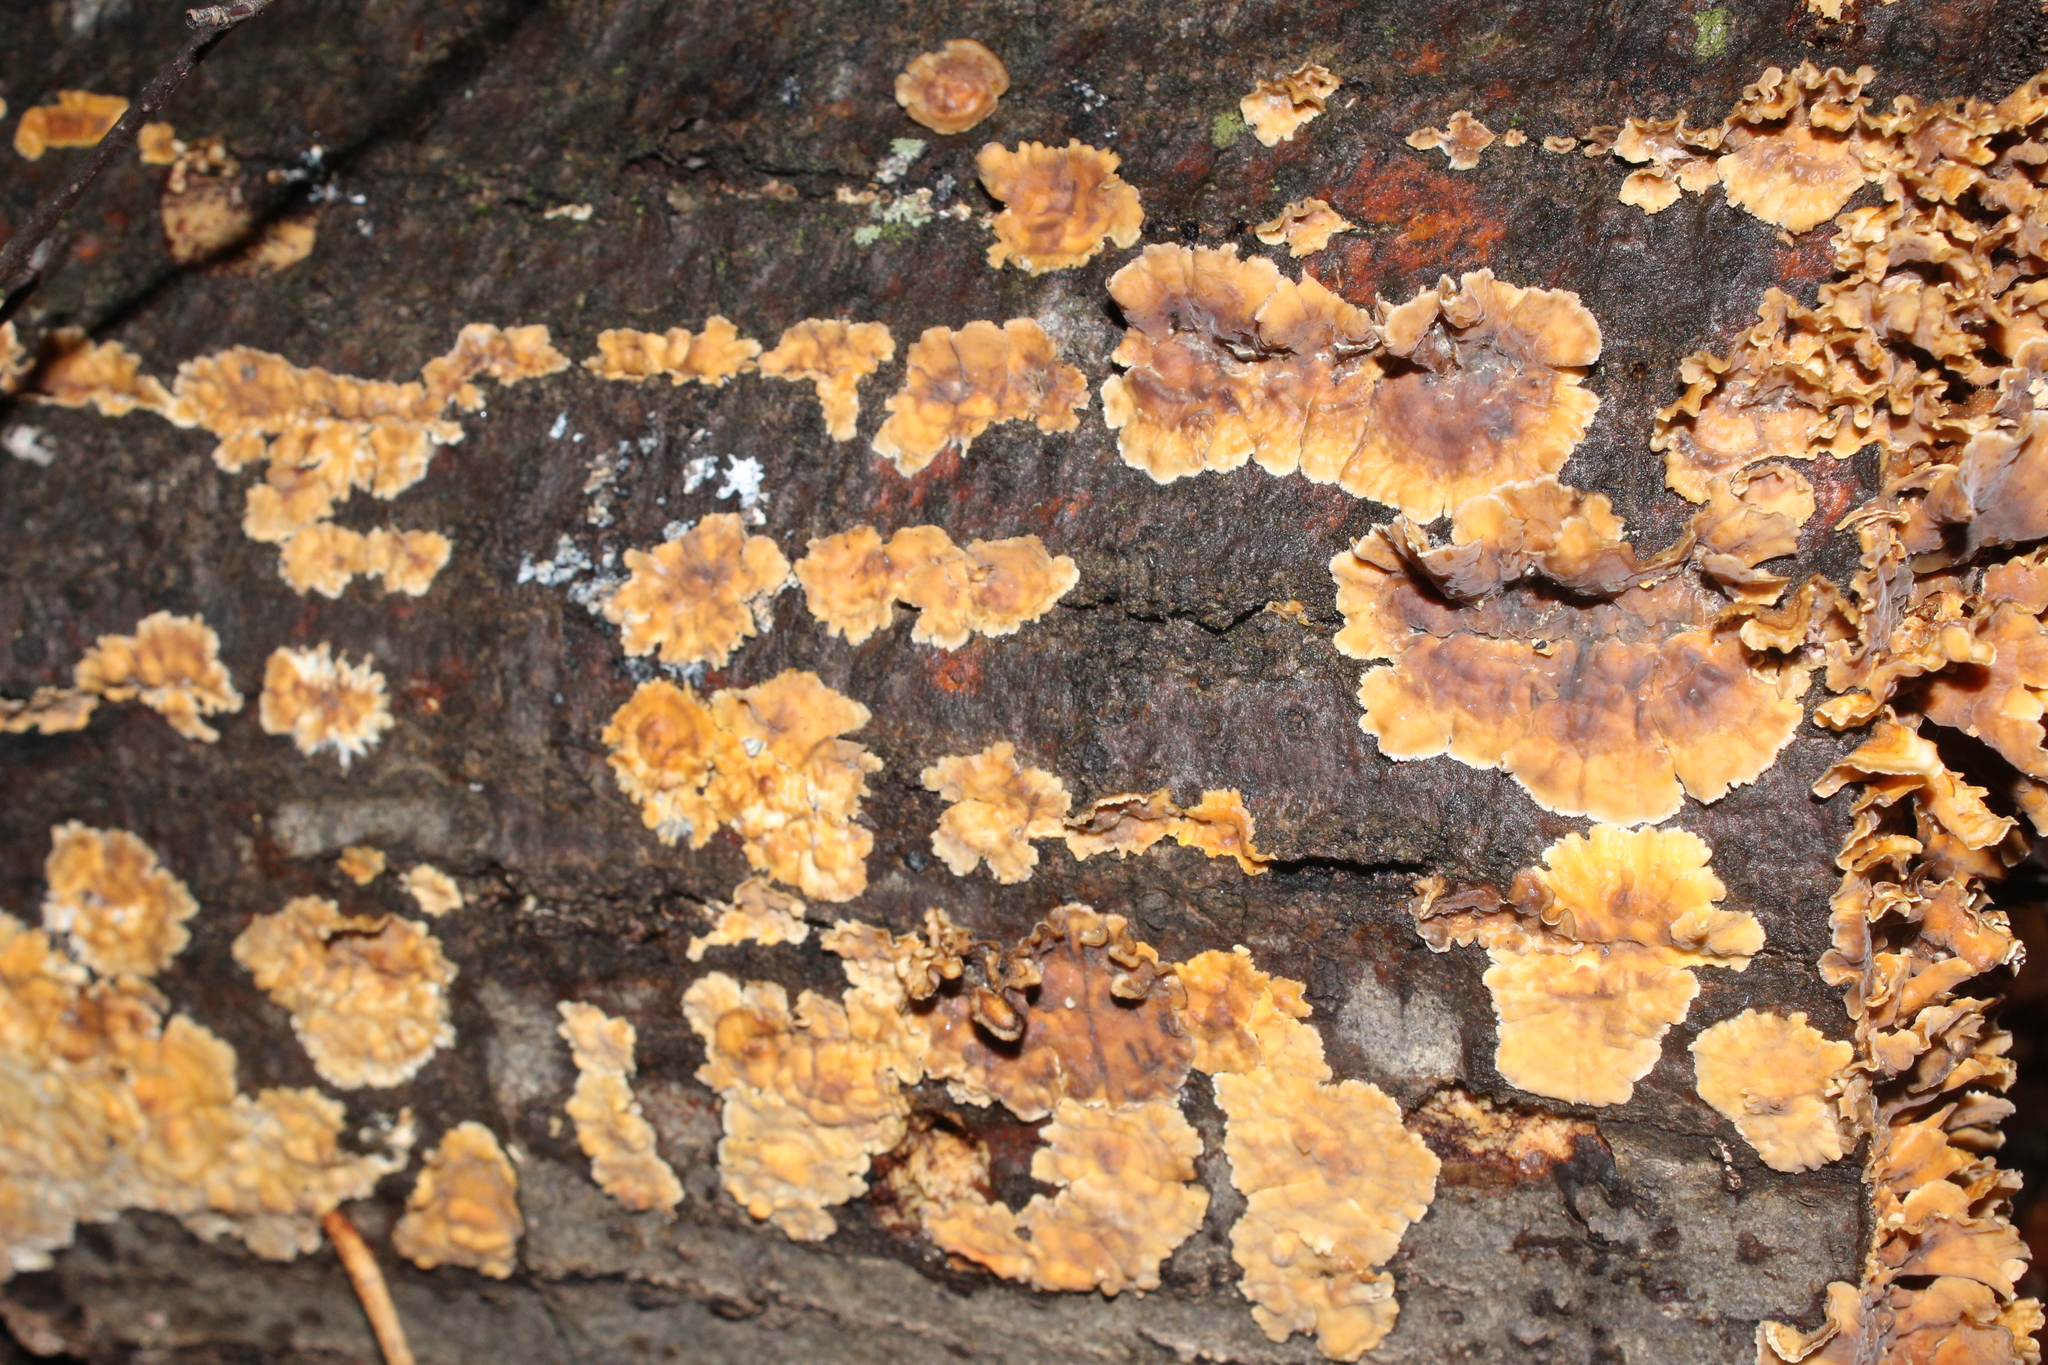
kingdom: Fungi
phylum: Basidiomycota
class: Agaricomycetes
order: Russulales
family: Stereaceae
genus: Stereum
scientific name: Stereum complicatum
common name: Crowded parchment
